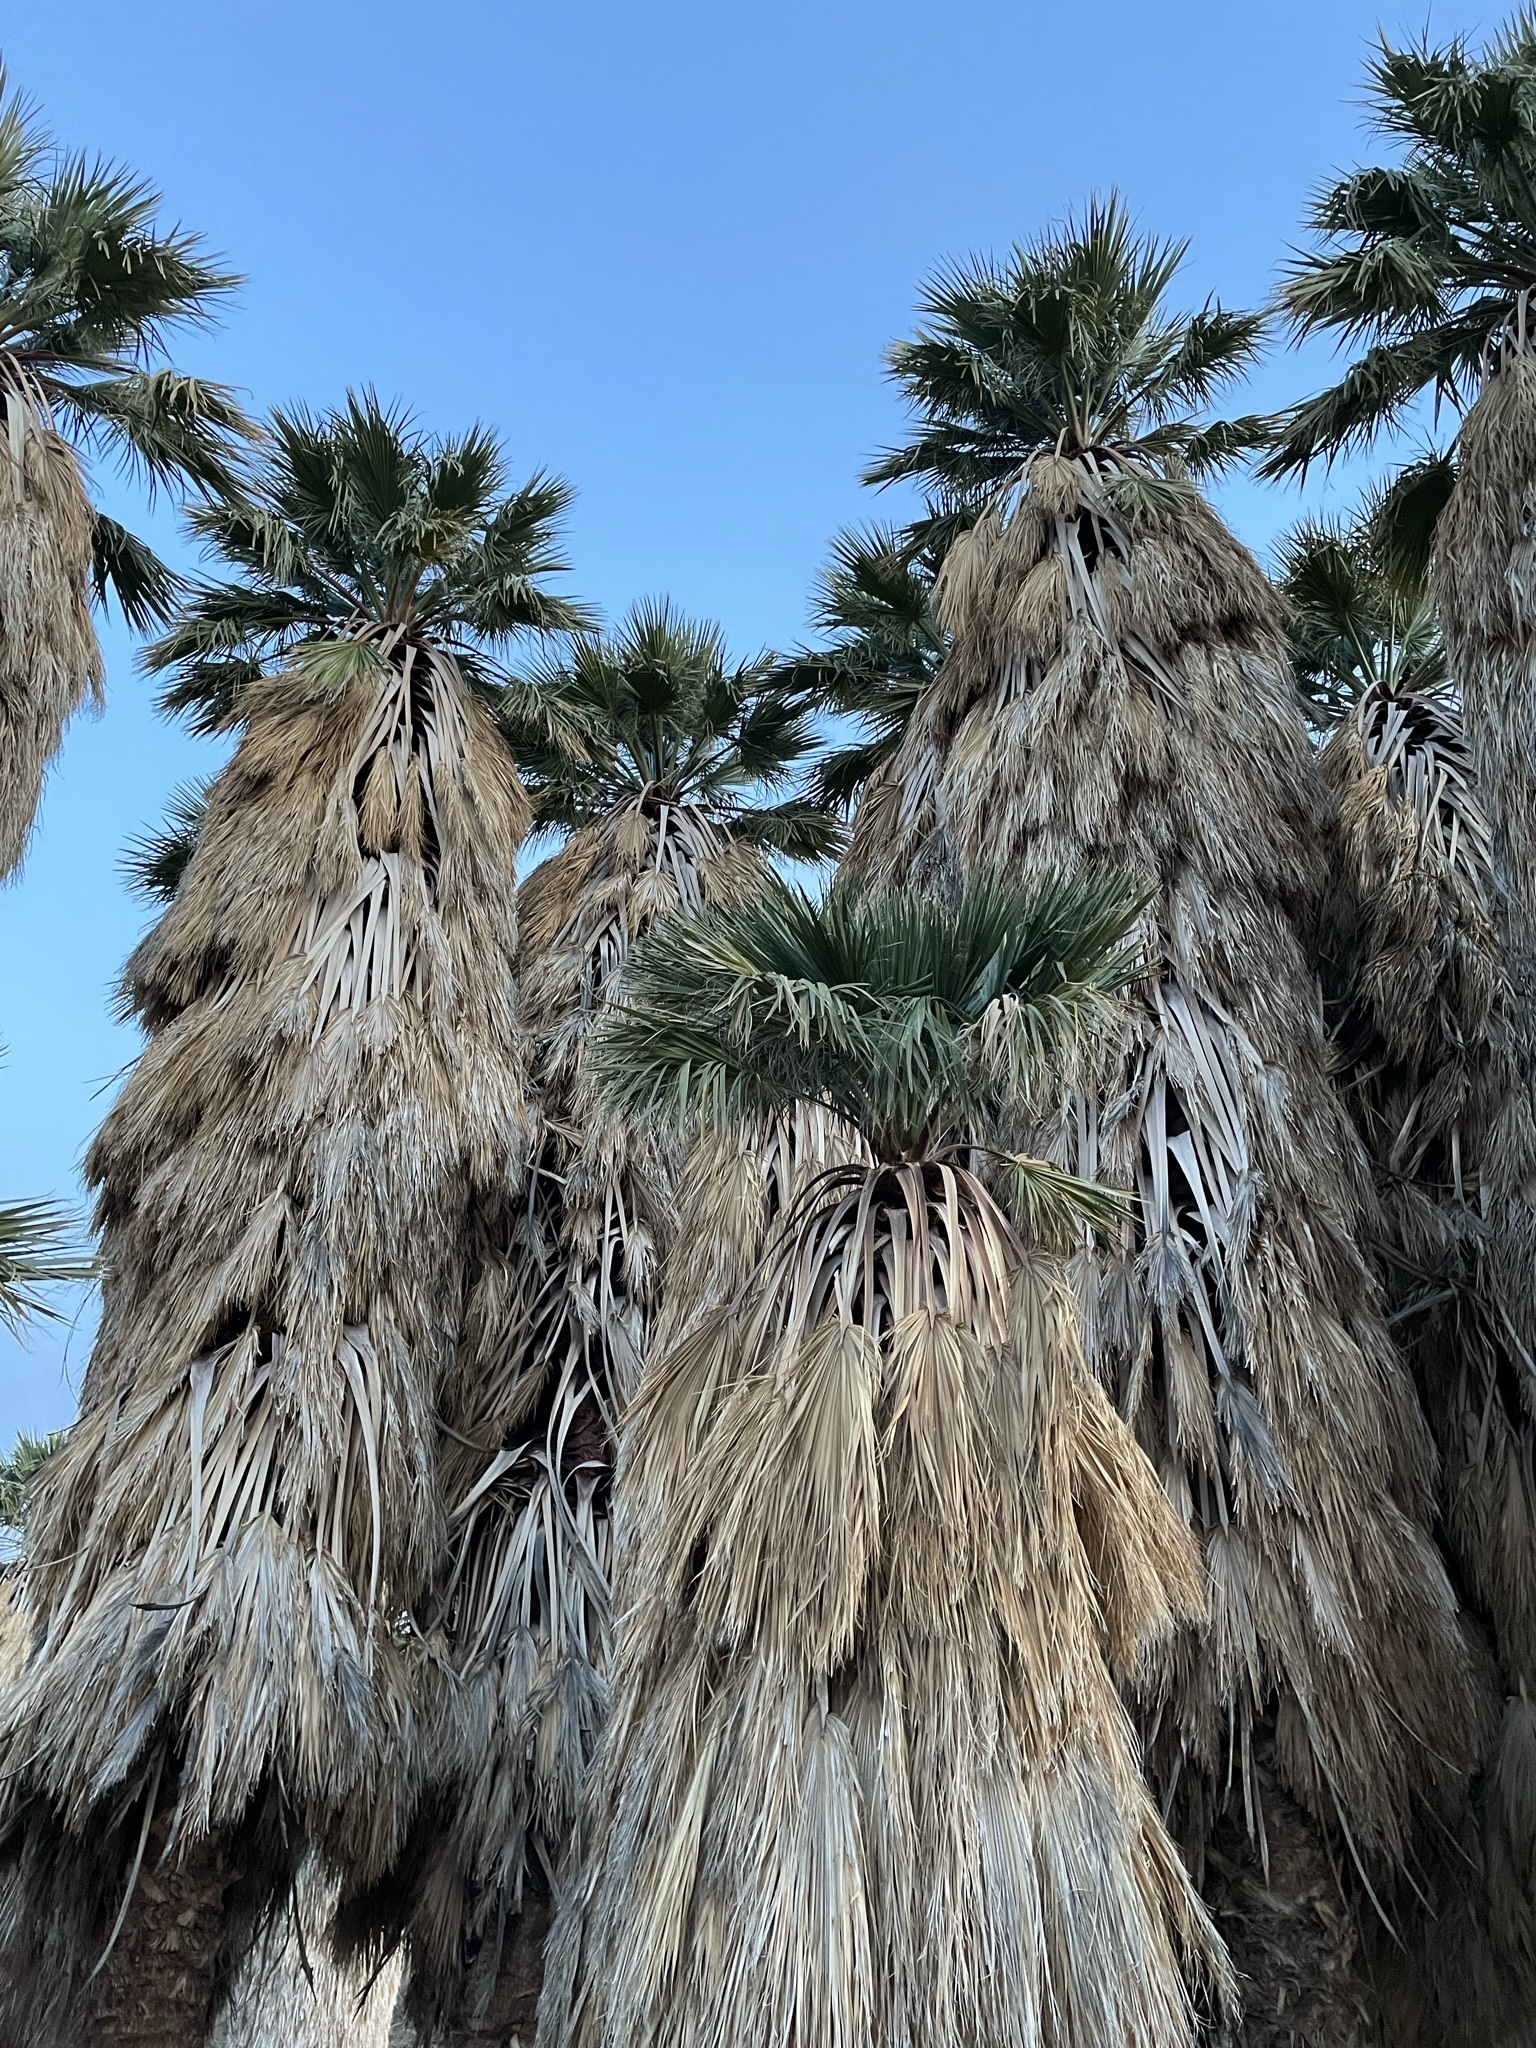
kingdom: Plantae
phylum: Tracheophyta
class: Liliopsida
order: Arecales
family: Arecaceae
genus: Washingtonia
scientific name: Washingtonia filifera
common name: California fan palm
